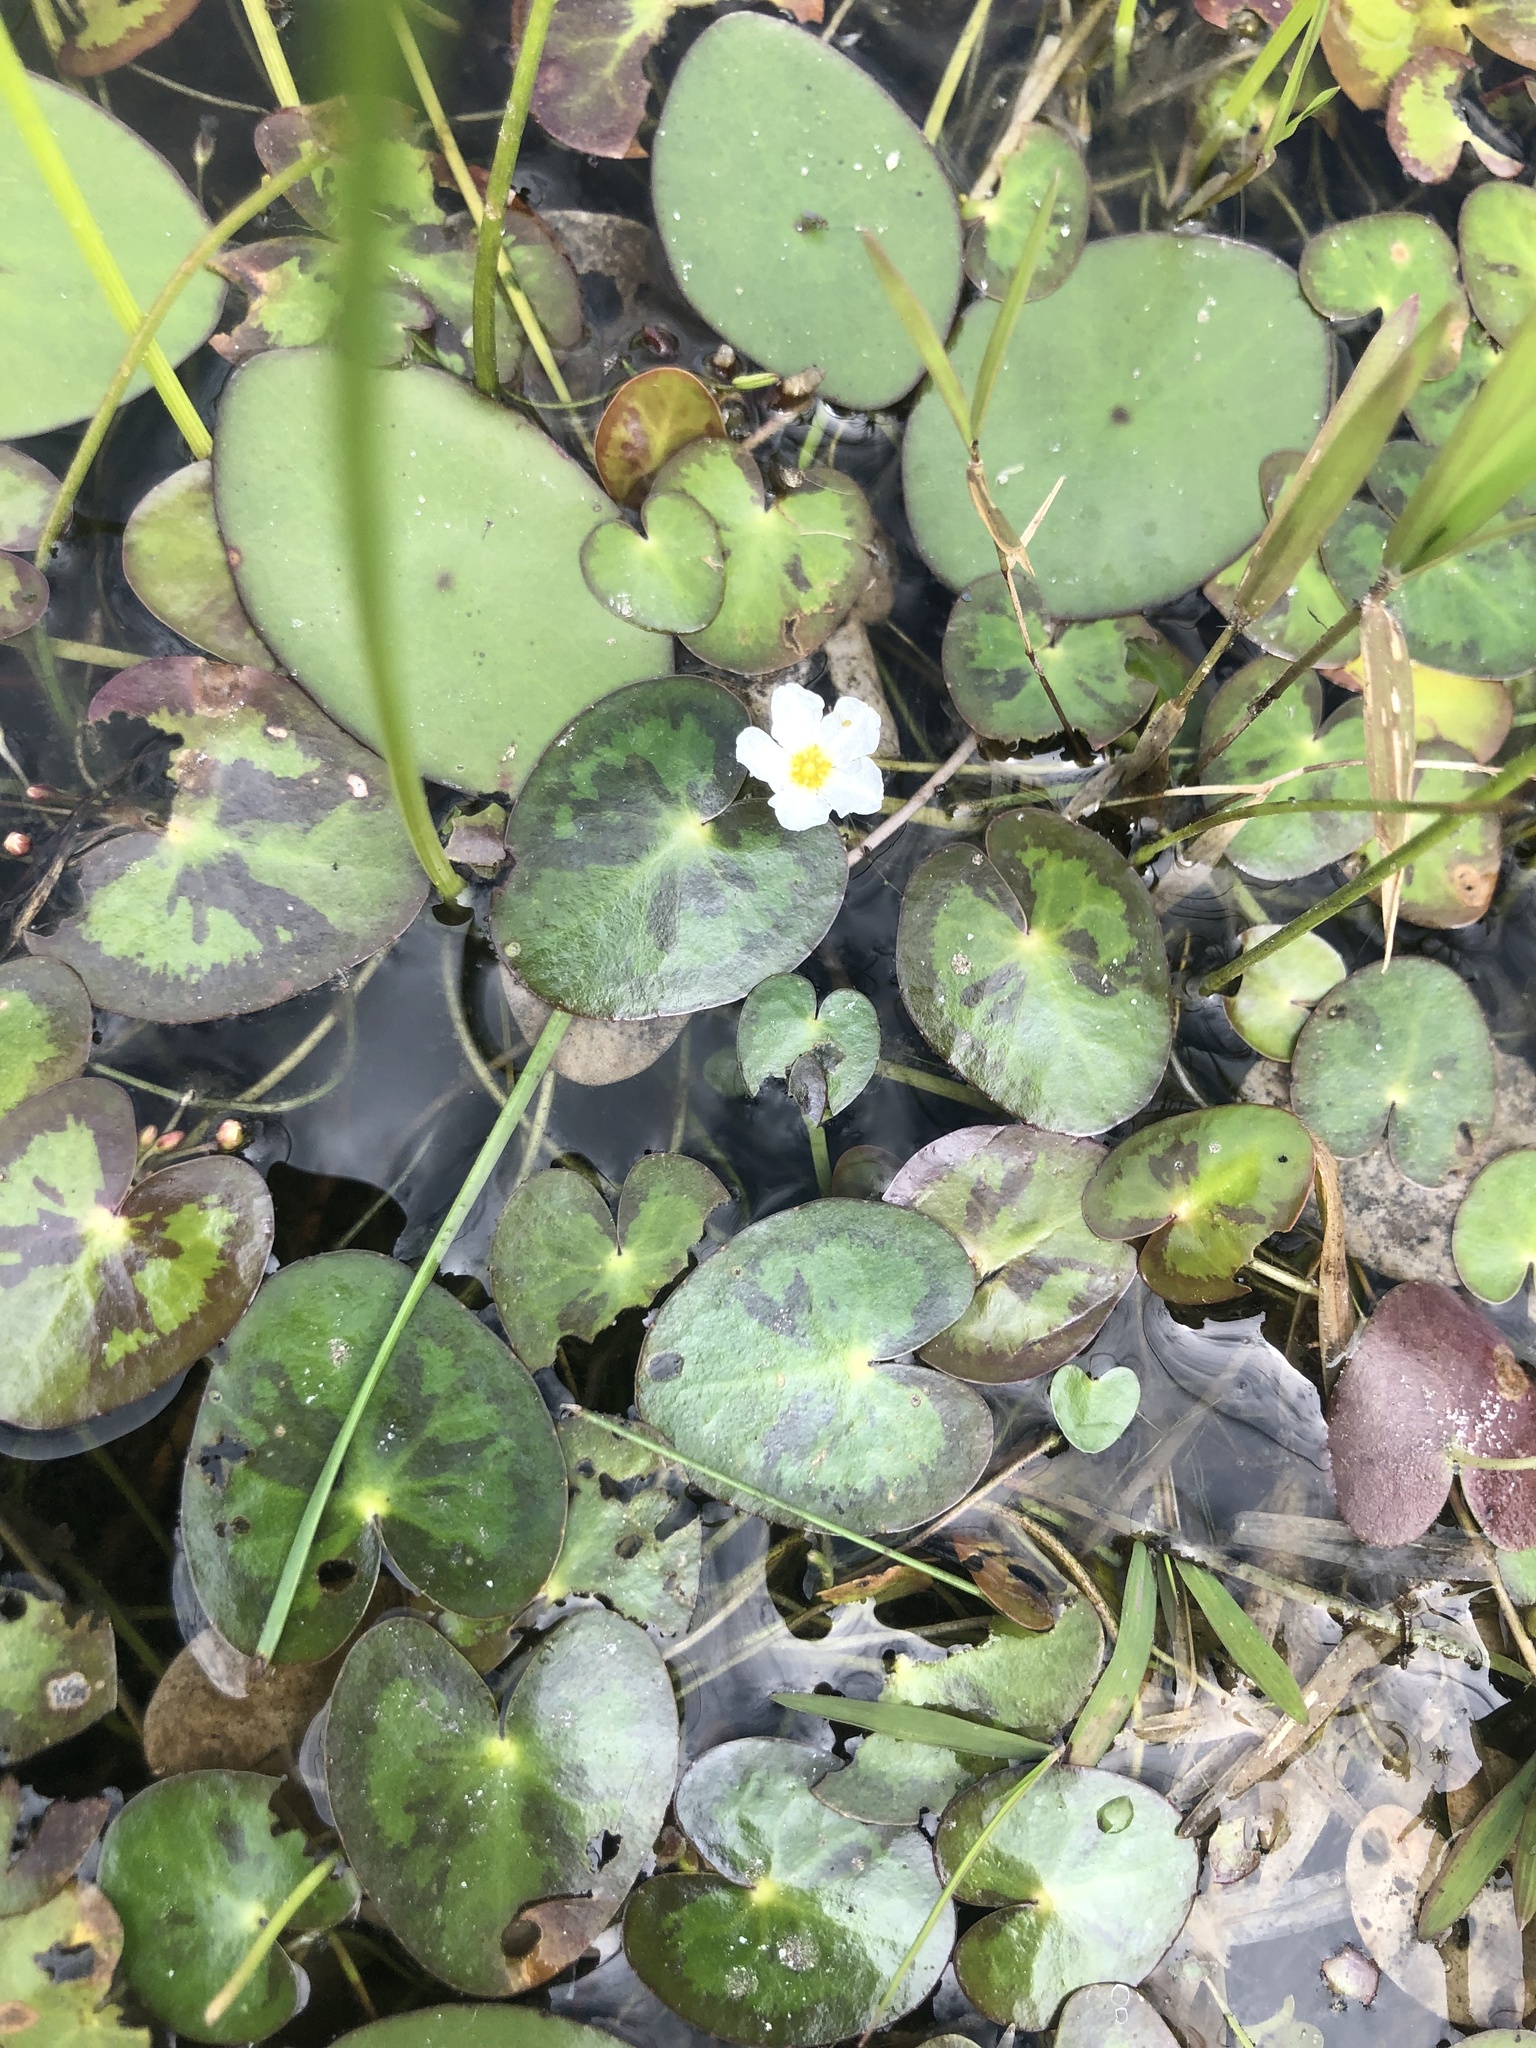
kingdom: Plantae
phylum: Tracheophyta
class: Magnoliopsida
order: Asterales
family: Menyanthaceae
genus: Nymphoides
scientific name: Nymphoides cordata
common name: Eight-angled floatingheart
